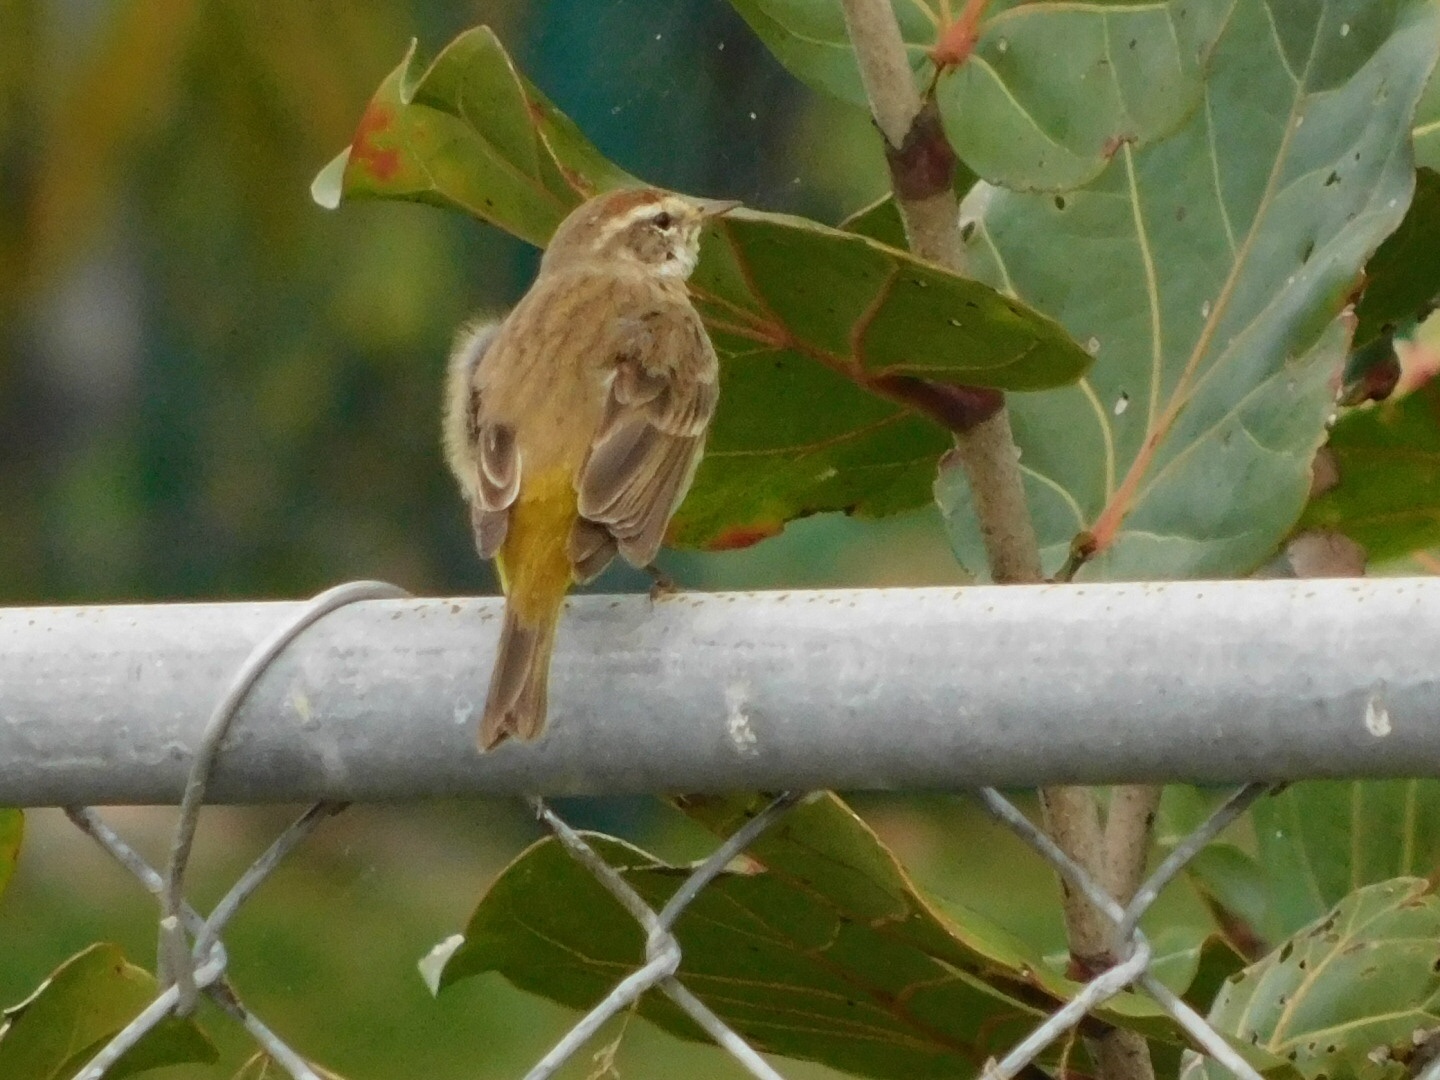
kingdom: Animalia
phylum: Chordata
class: Aves
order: Passeriformes
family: Parulidae
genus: Setophaga
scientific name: Setophaga palmarum
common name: Palm warbler
